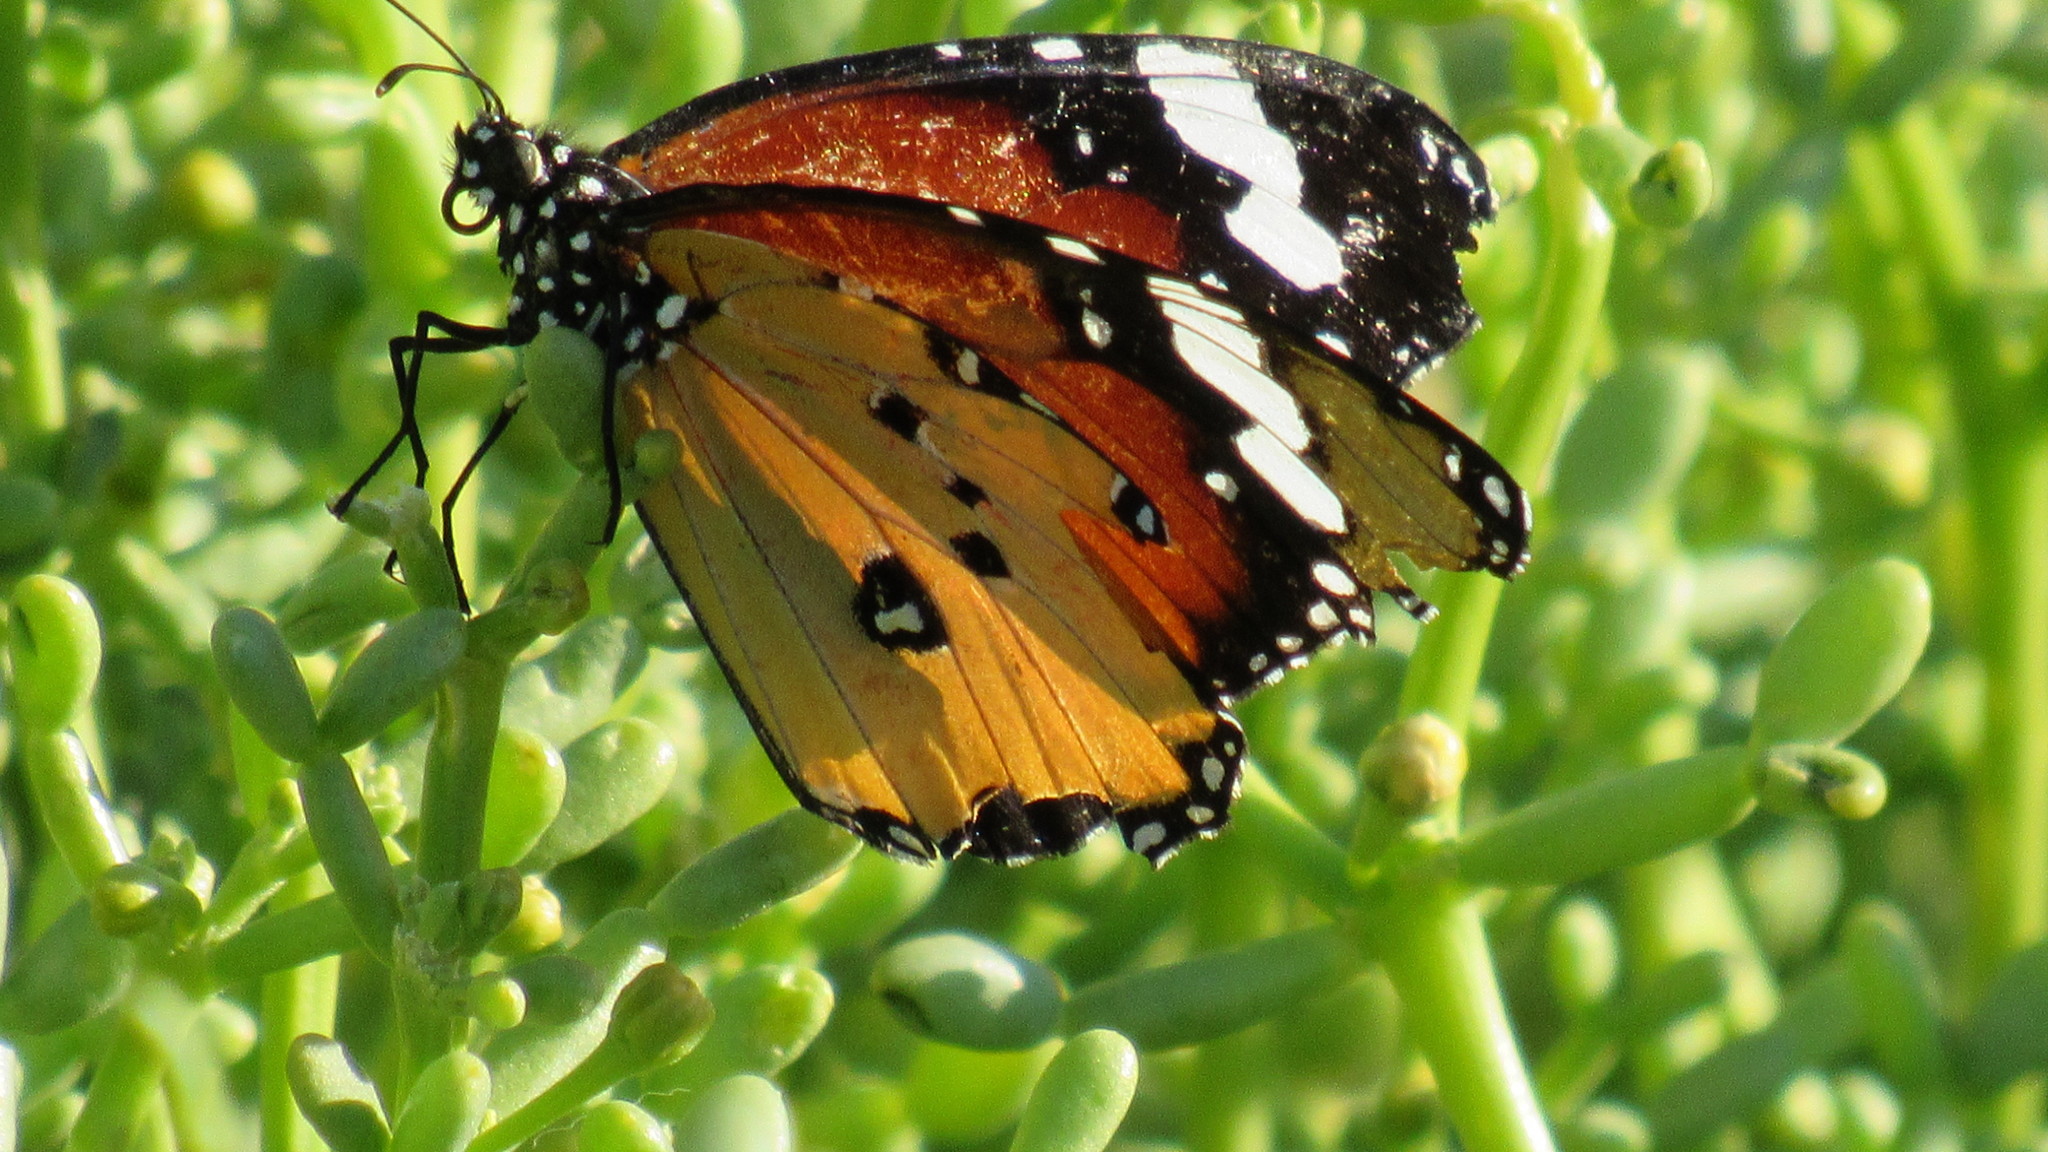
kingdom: Animalia
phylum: Arthropoda
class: Insecta
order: Lepidoptera
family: Nymphalidae
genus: Danaus
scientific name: Danaus chrysippus
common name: Plain tiger
